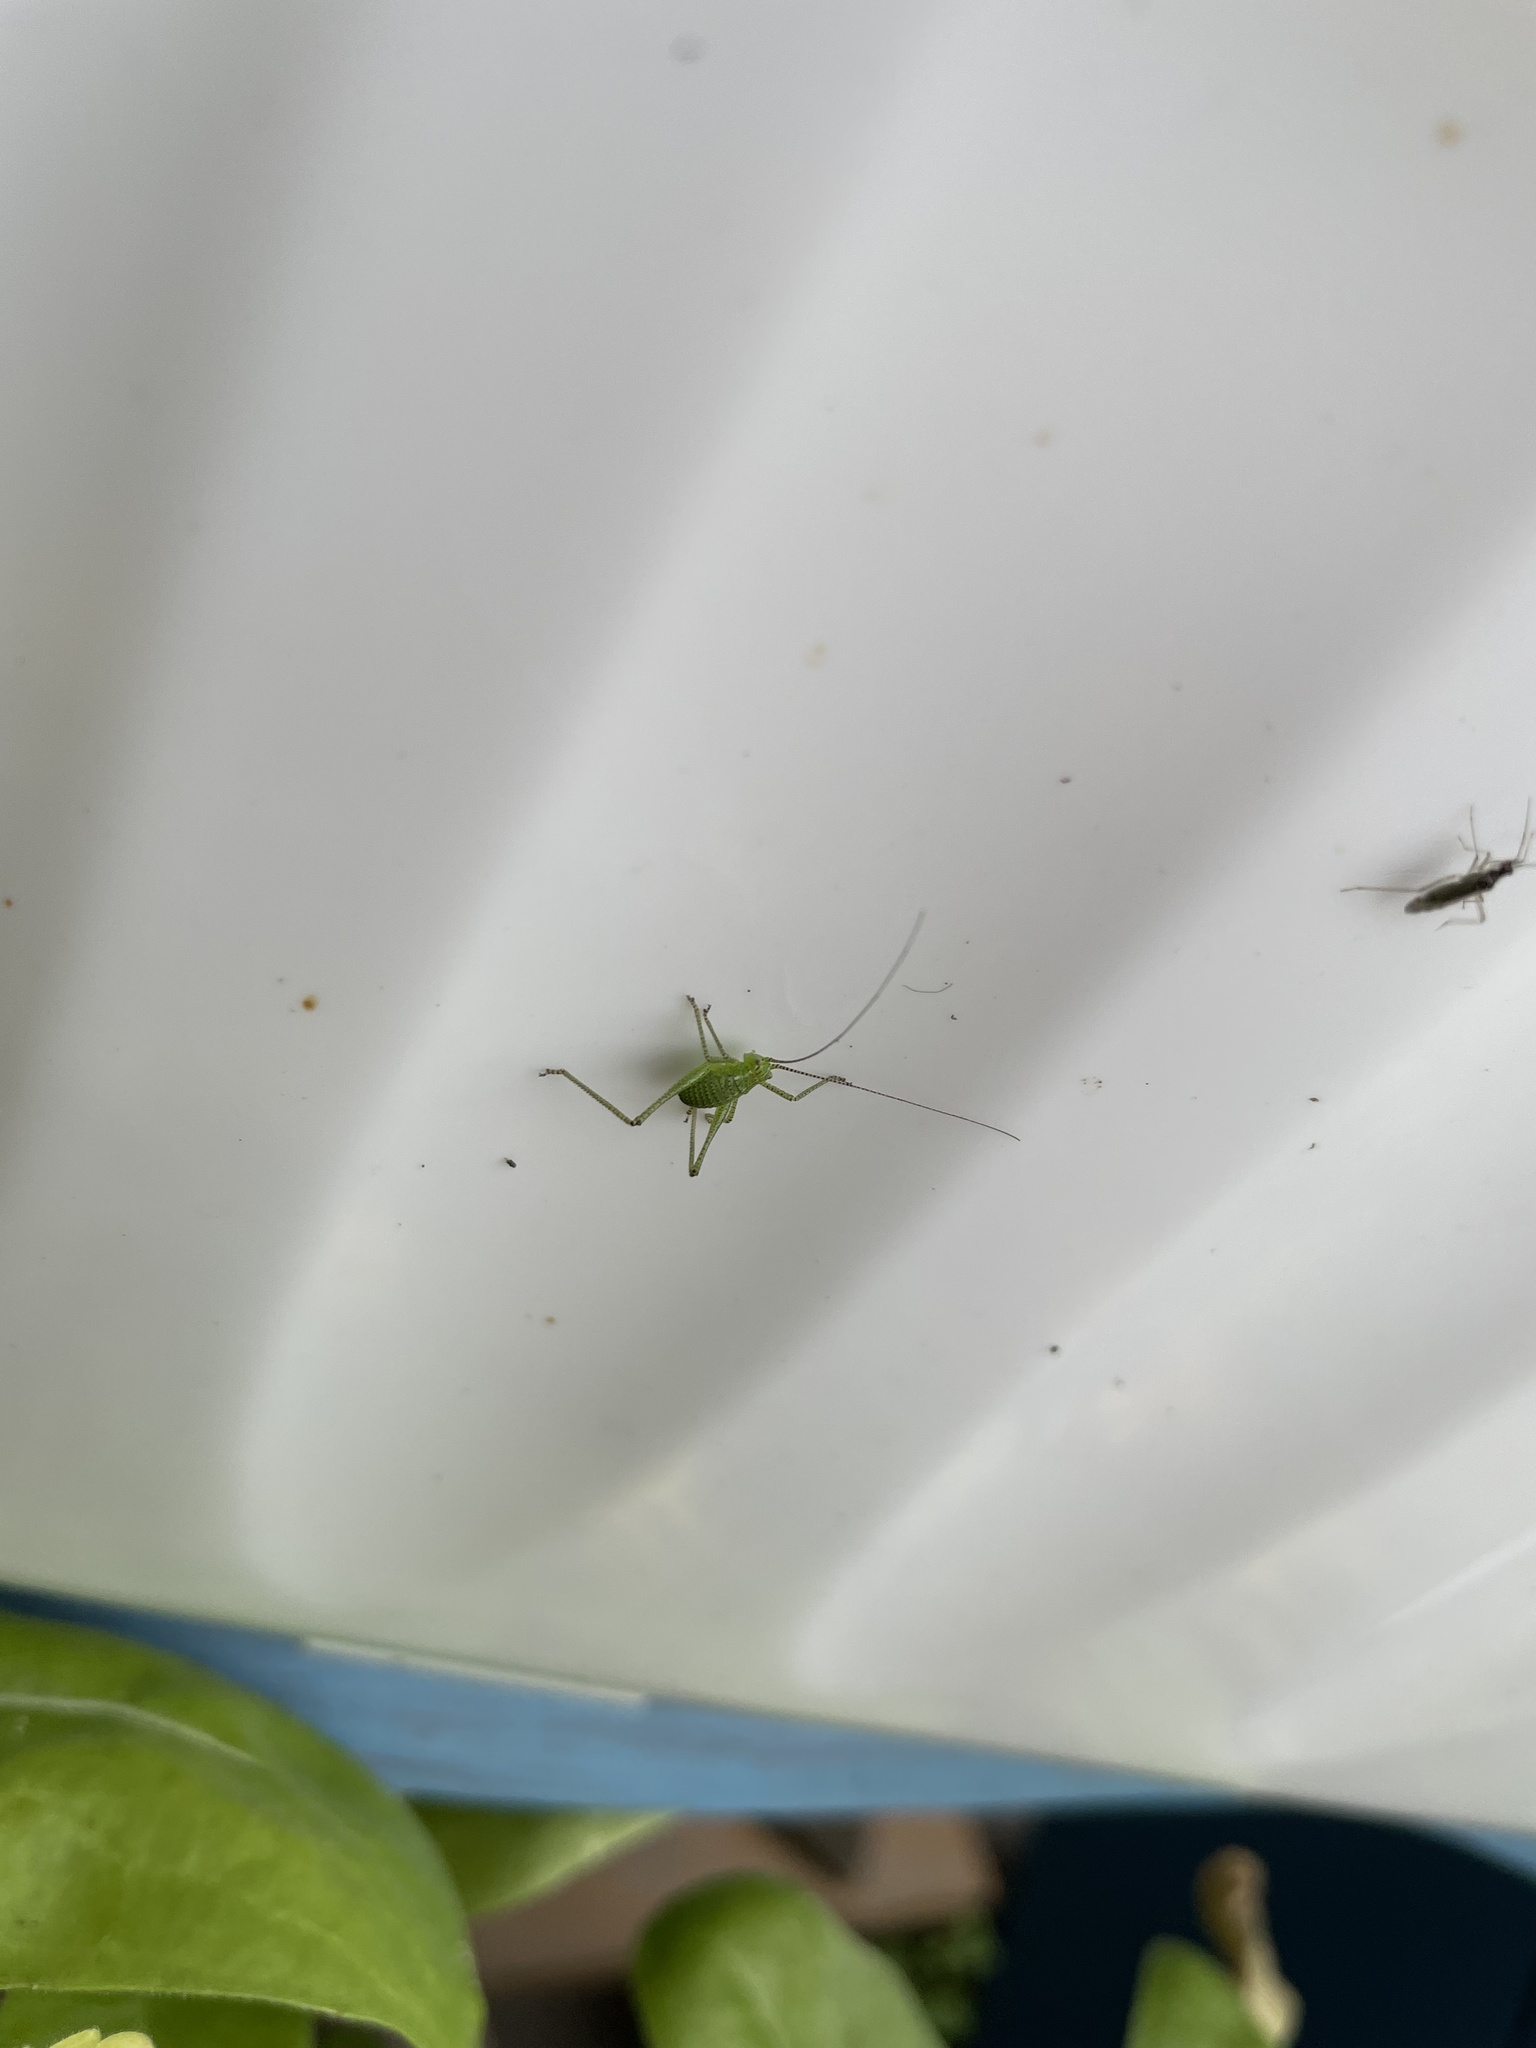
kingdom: Animalia
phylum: Arthropoda
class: Insecta
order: Orthoptera
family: Tettigoniidae
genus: Leptophyes
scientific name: Leptophyes punctatissima
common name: Speckled bush-cricket
